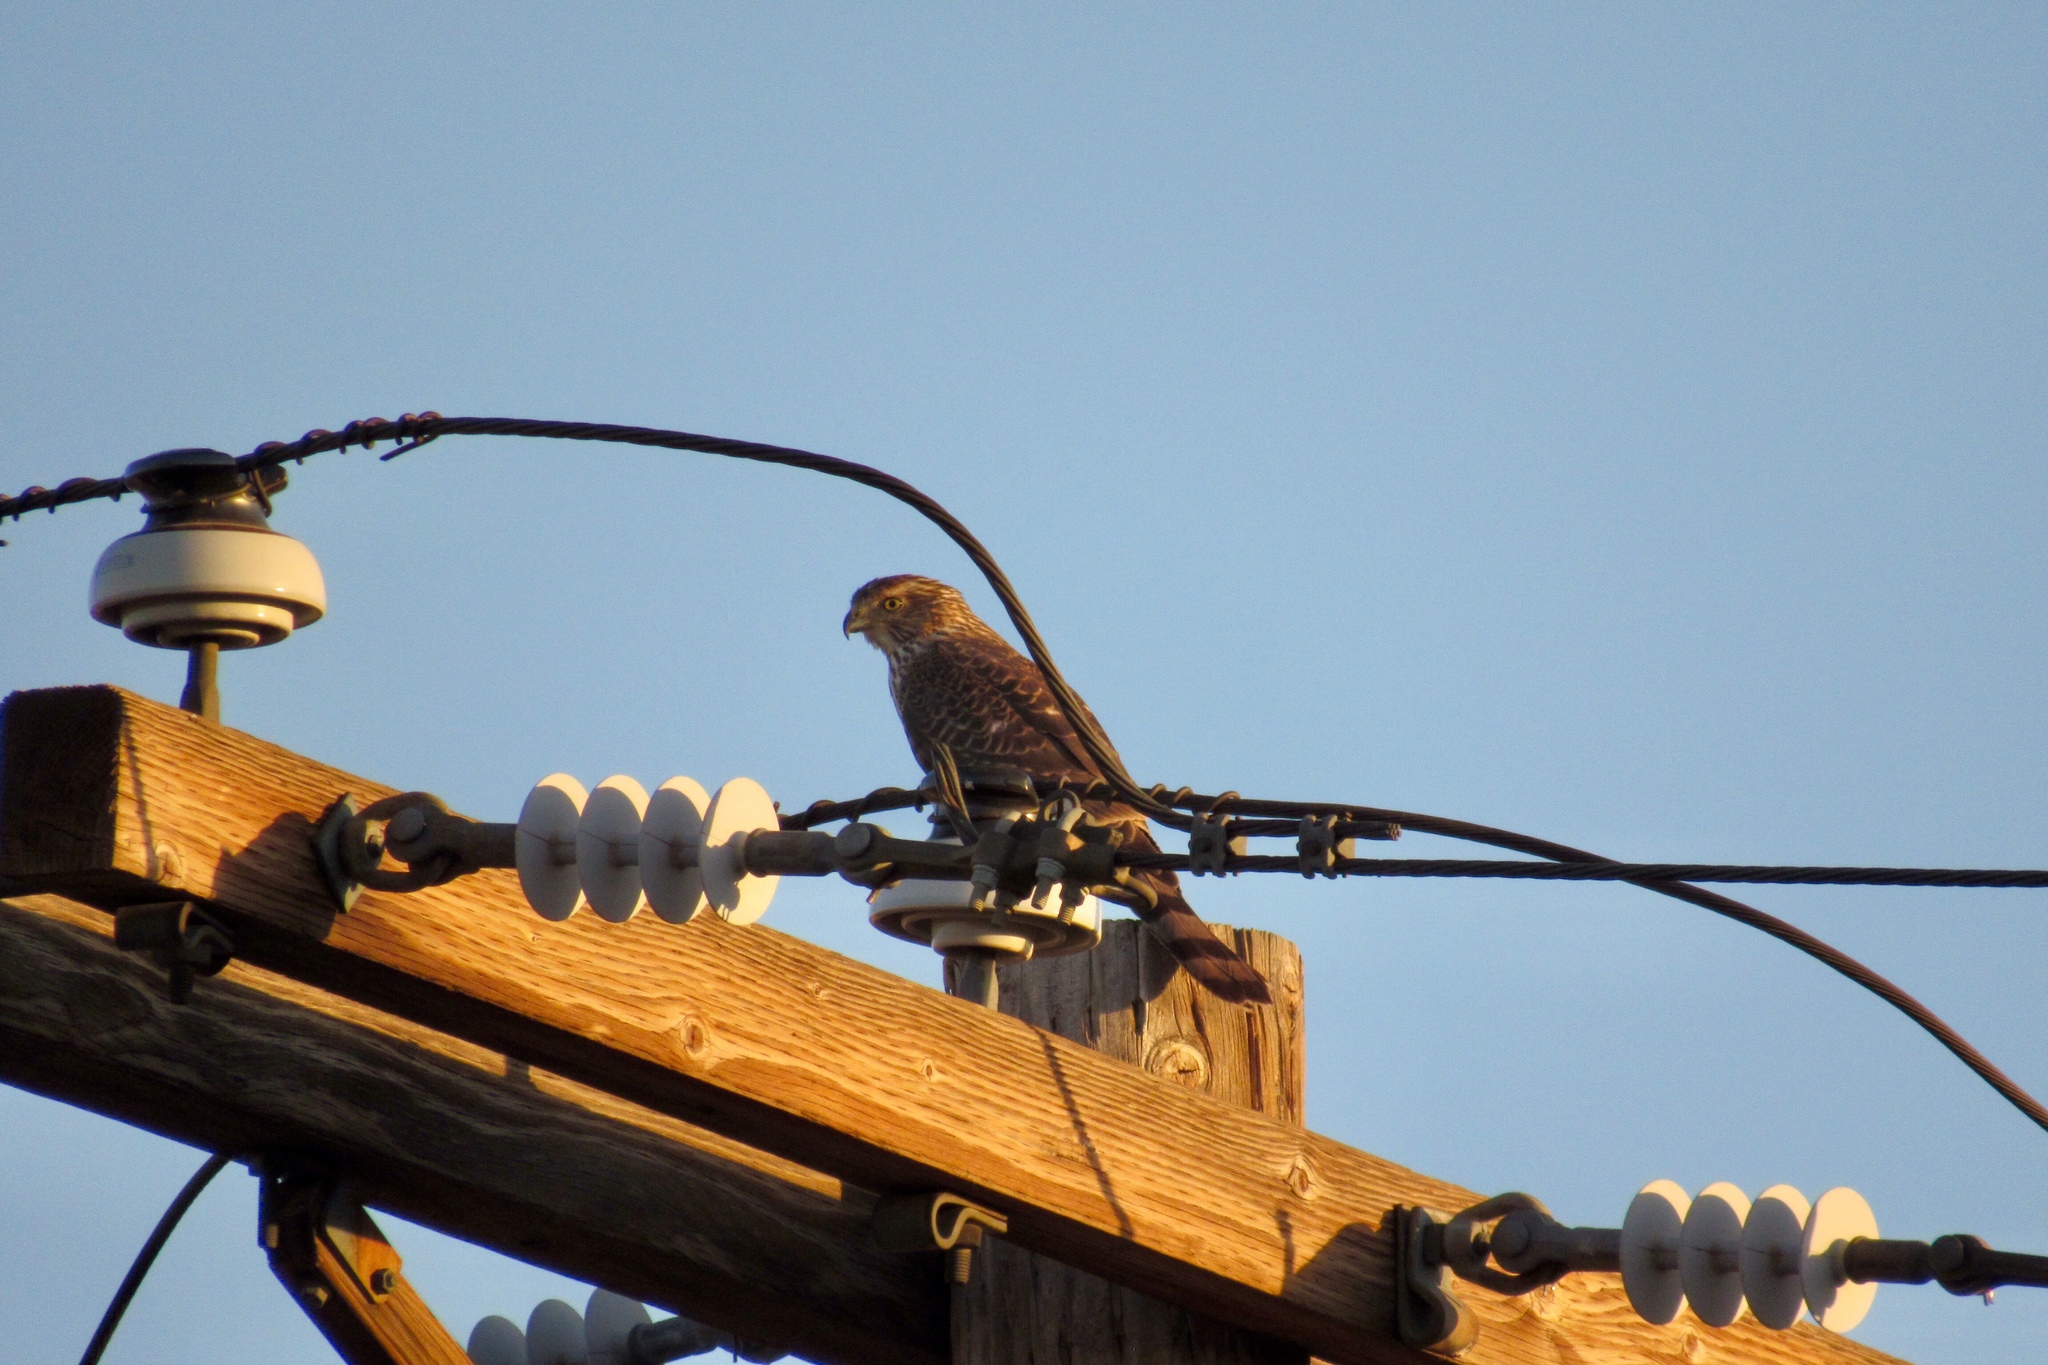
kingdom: Animalia
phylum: Chordata
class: Aves
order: Accipitriformes
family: Accipitridae
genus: Accipiter
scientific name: Accipiter cooperii
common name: Cooper's hawk
